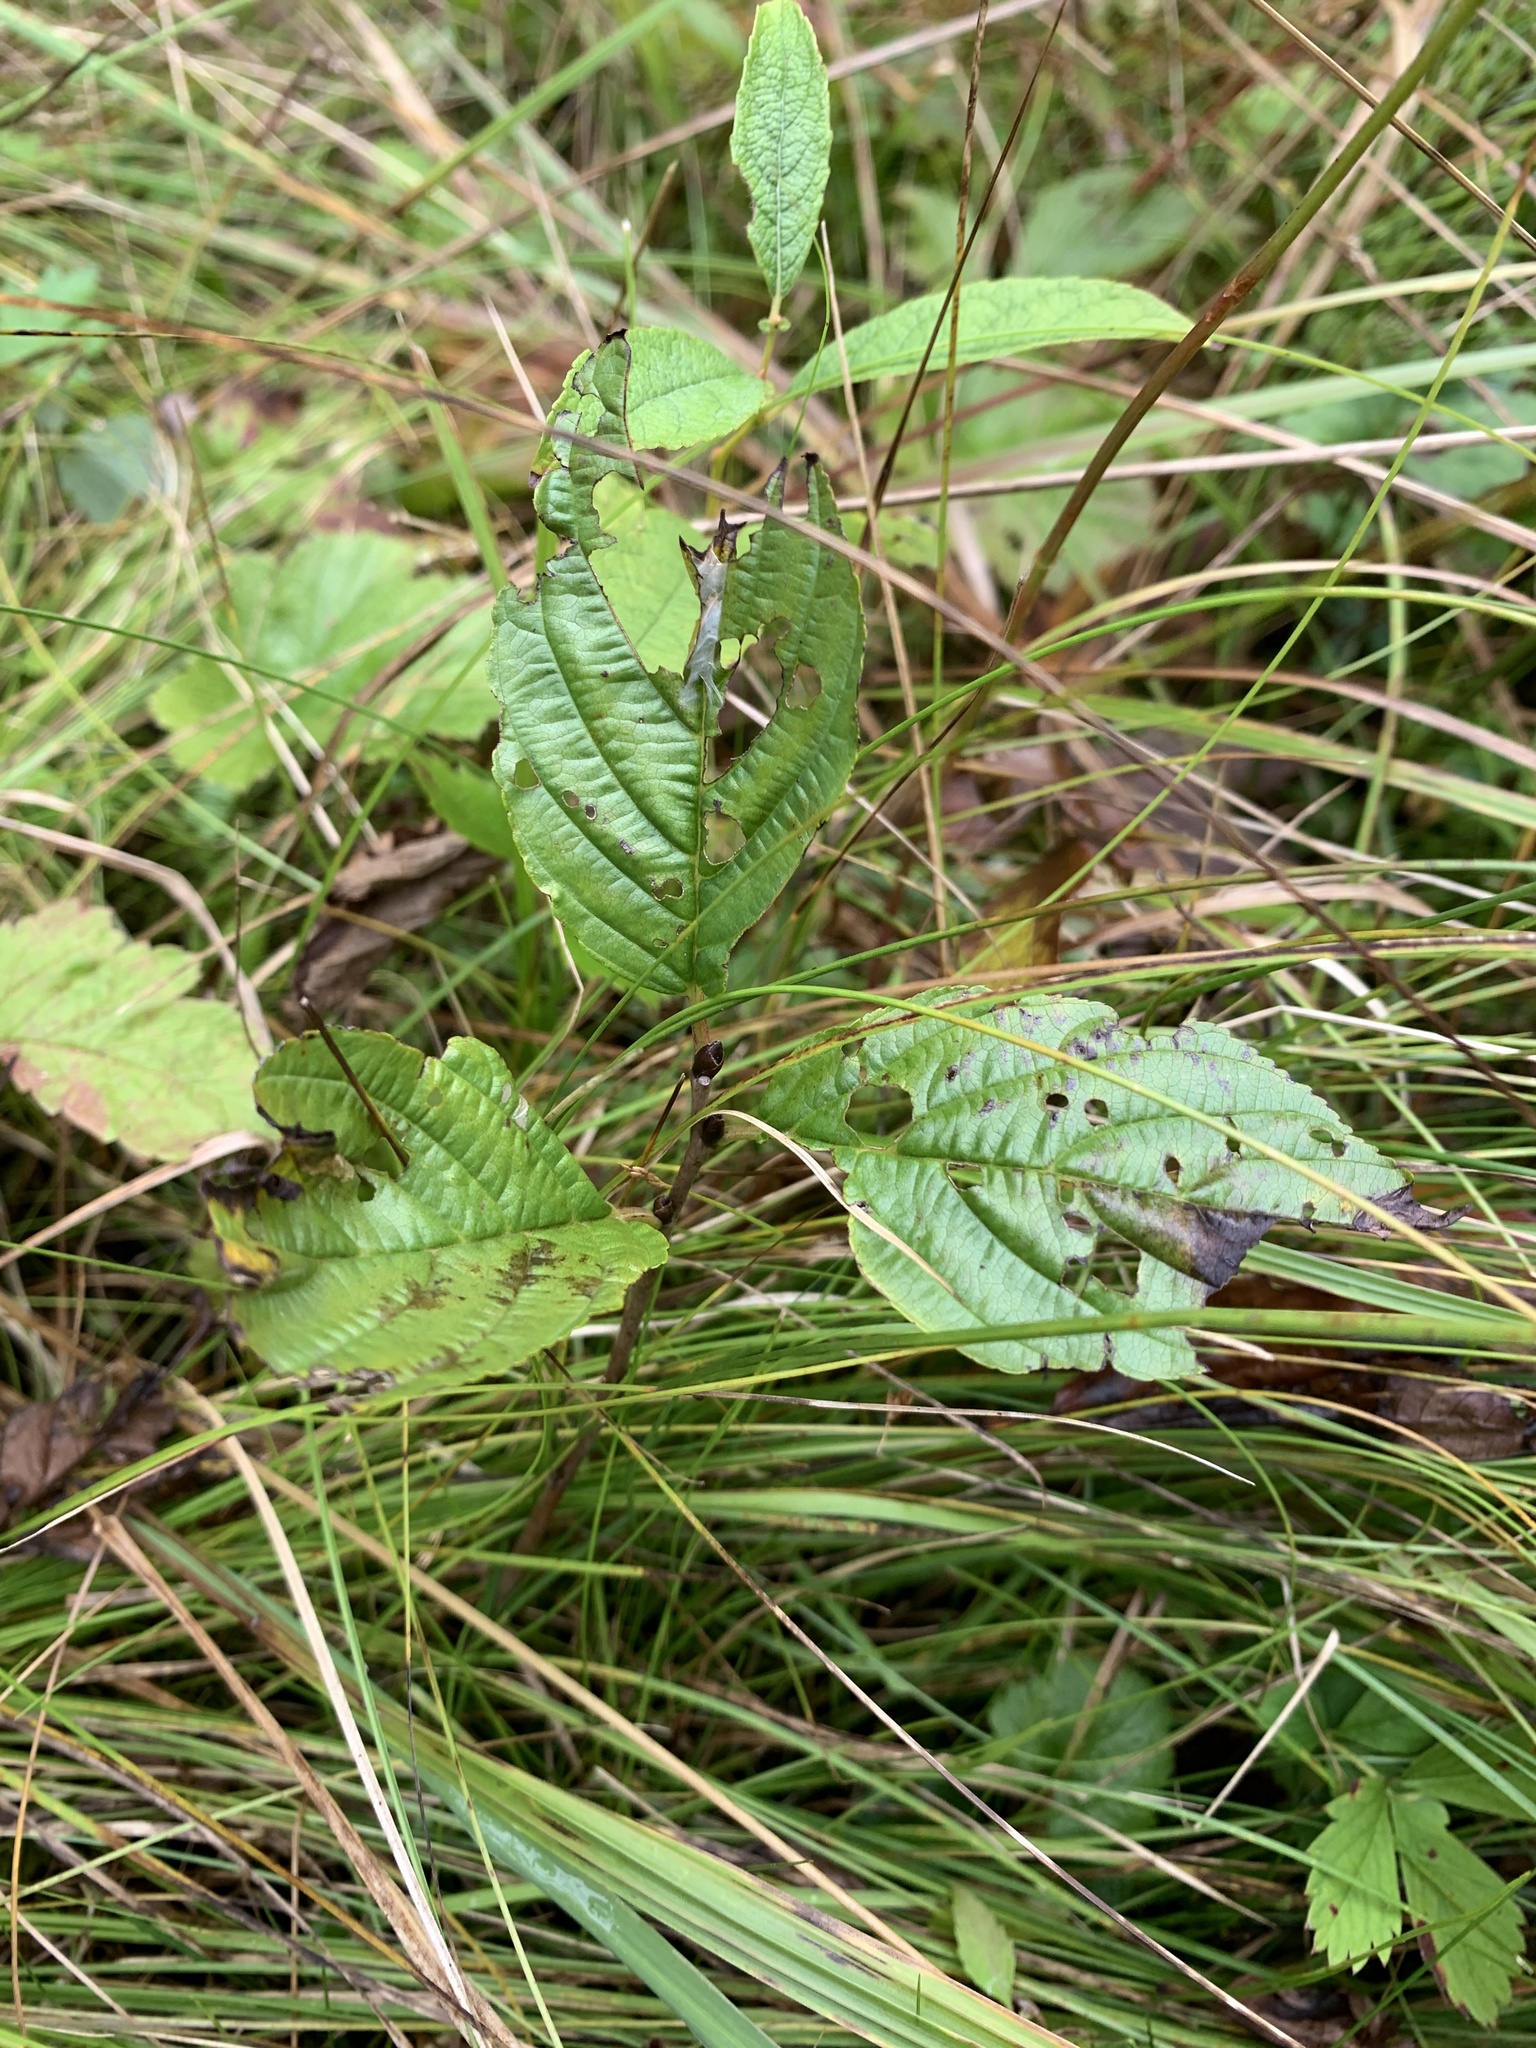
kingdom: Plantae
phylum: Tracheophyta
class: Magnoliopsida
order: Rosales
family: Rhamnaceae
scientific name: Rhamnaceae
